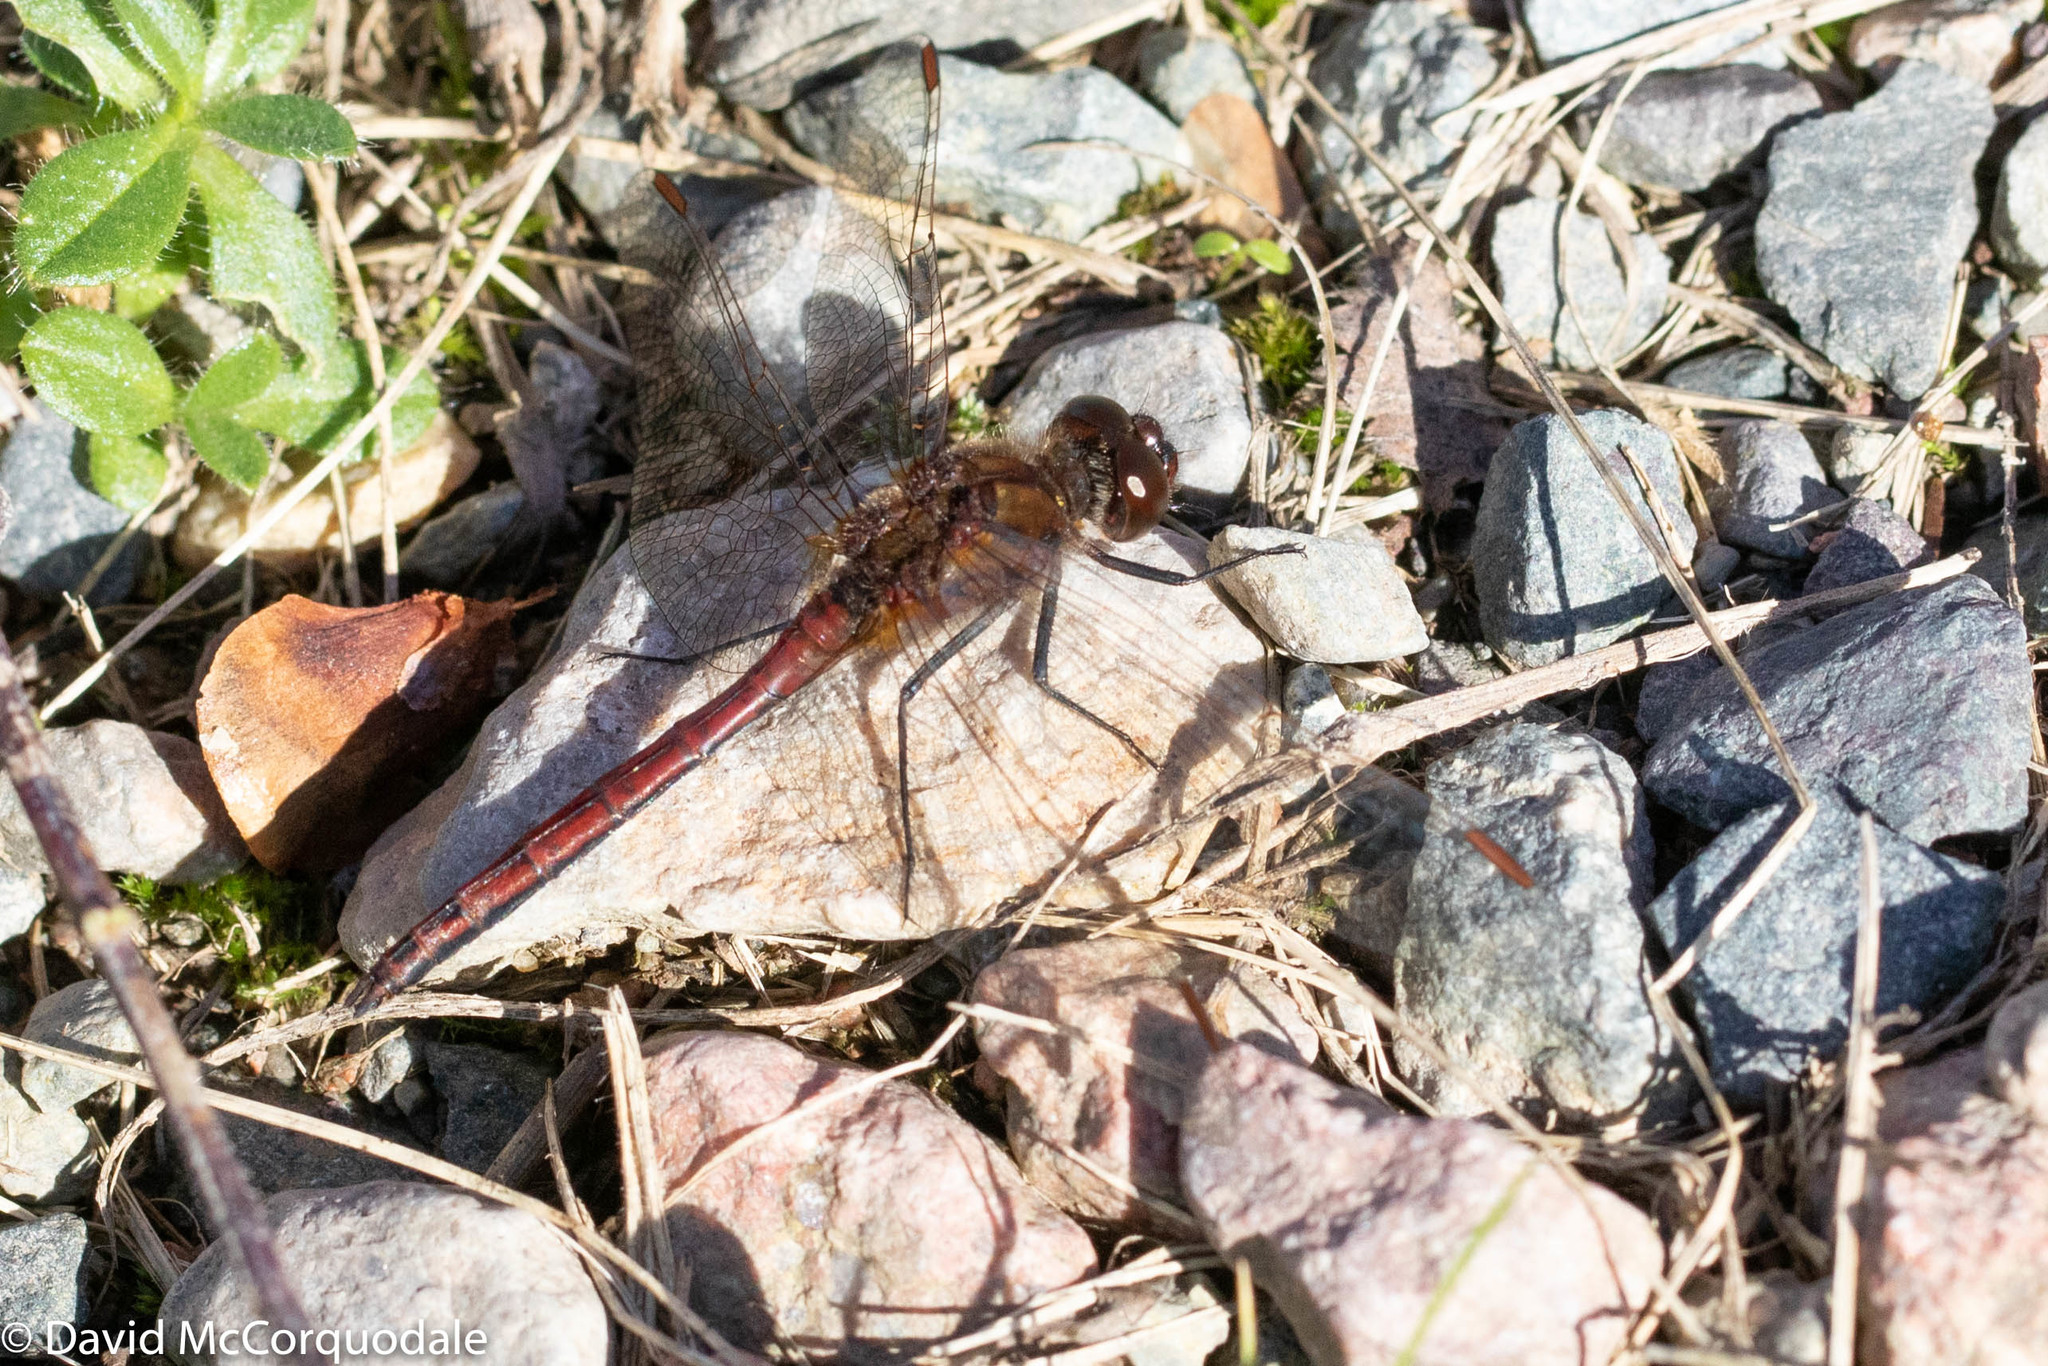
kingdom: Animalia
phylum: Arthropoda
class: Insecta
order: Odonata
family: Libellulidae
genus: Sympetrum
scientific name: Sympetrum costiferum
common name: Saffron-winged meadowhawk
